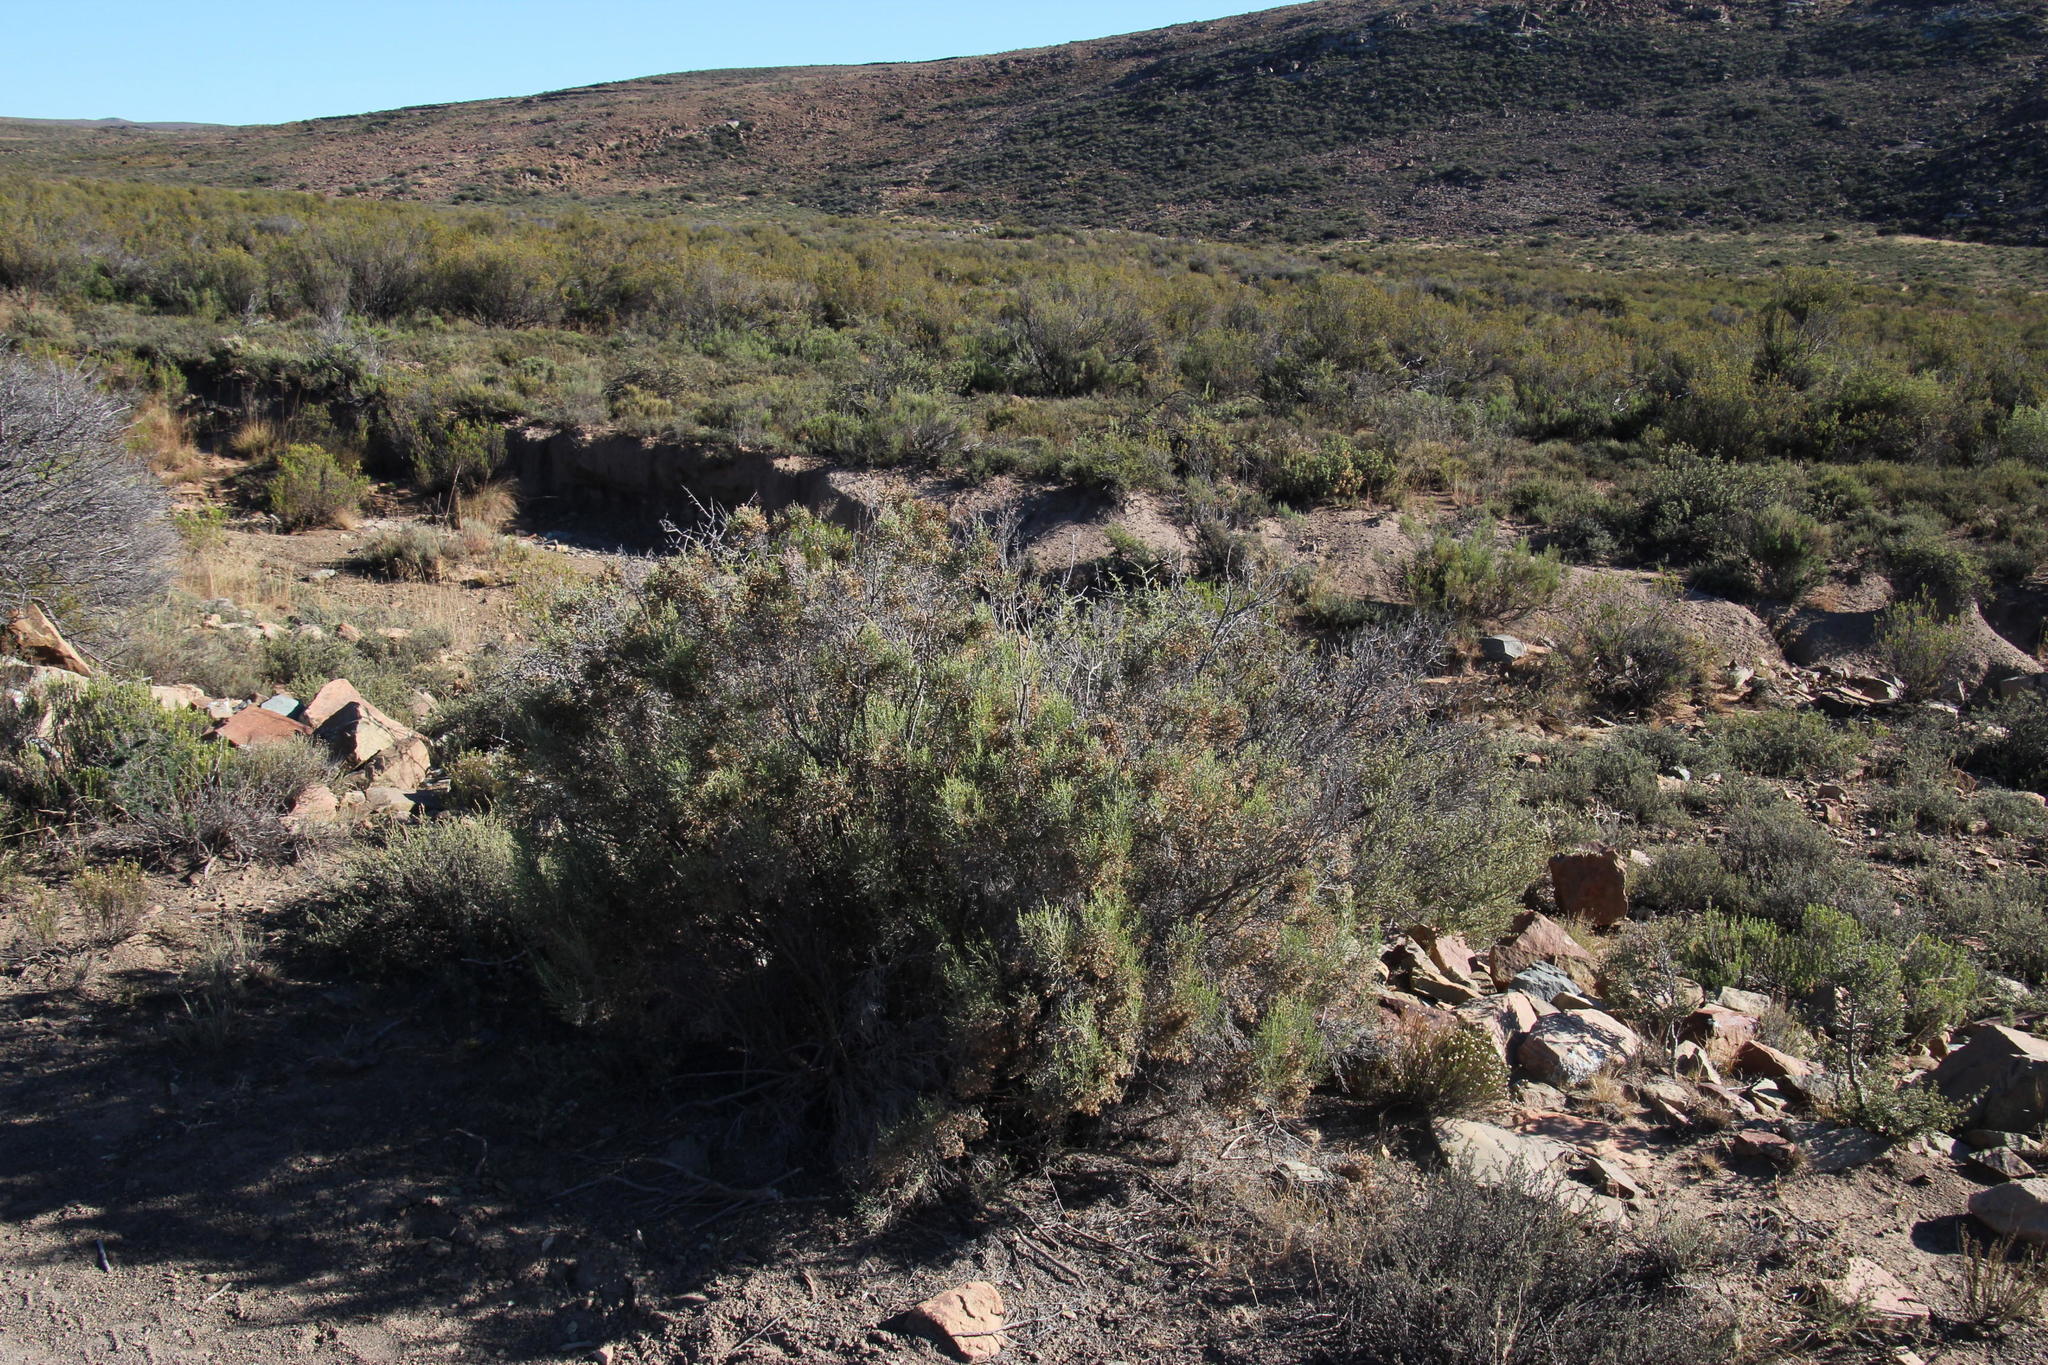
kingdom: Plantae
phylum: Tracheophyta
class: Magnoliopsida
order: Asterales
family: Asteraceae
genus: Dicerothamnus
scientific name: Dicerothamnus rhinocerotis
